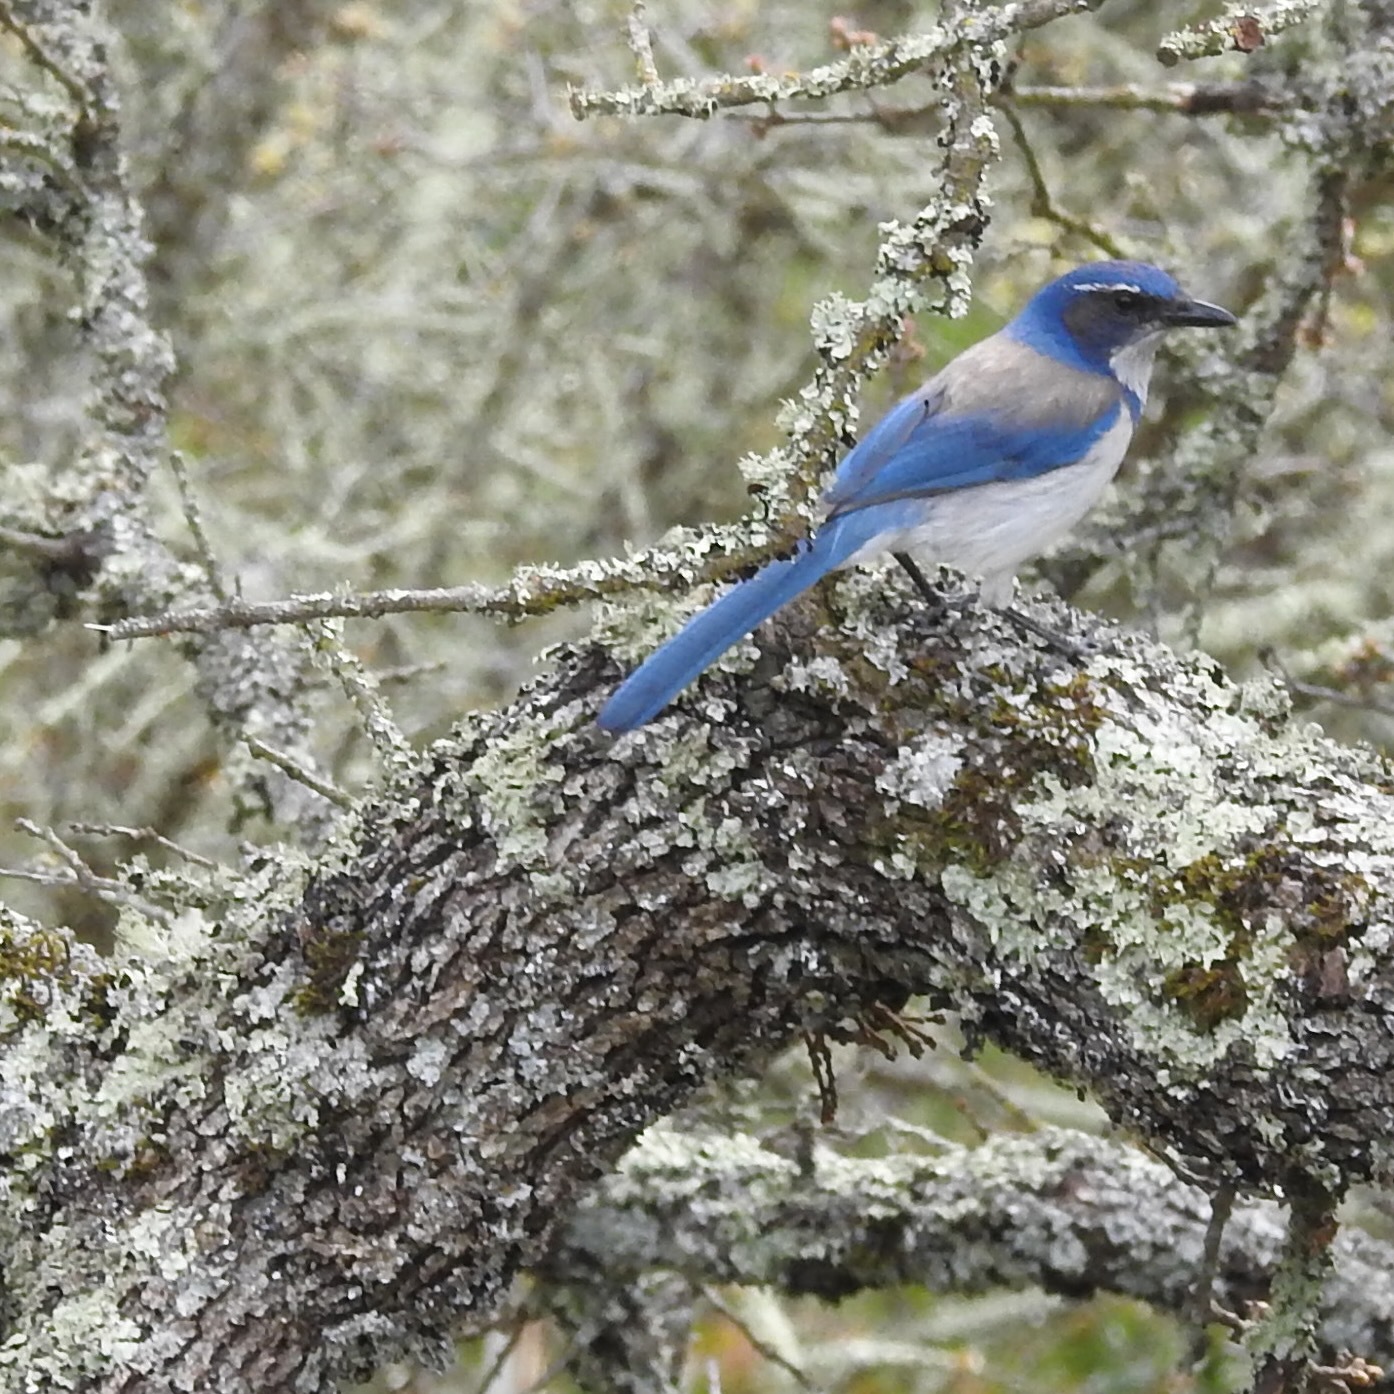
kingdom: Animalia
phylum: Chordata
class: Aves
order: Passeriformes
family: Corvidae
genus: Aphelocoma
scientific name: Aphelocoma californica
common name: California scrub-jay
